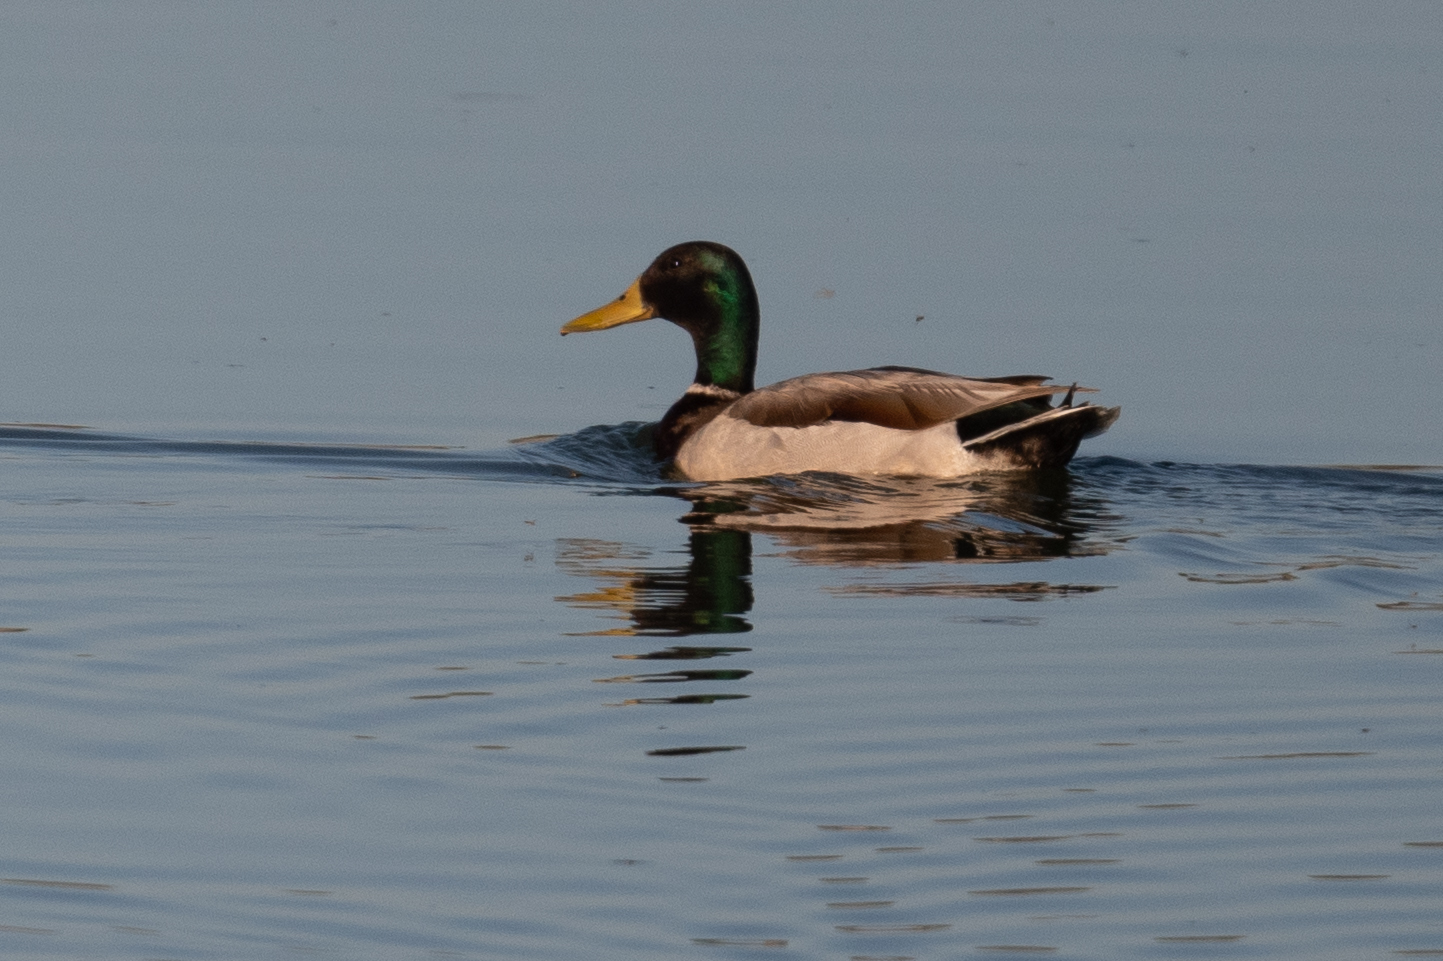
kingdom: Animalia
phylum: Chordata
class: Aves
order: Anseriformes
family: Anatidae
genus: Anas
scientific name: Anas platyrhynchos
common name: Mallard
